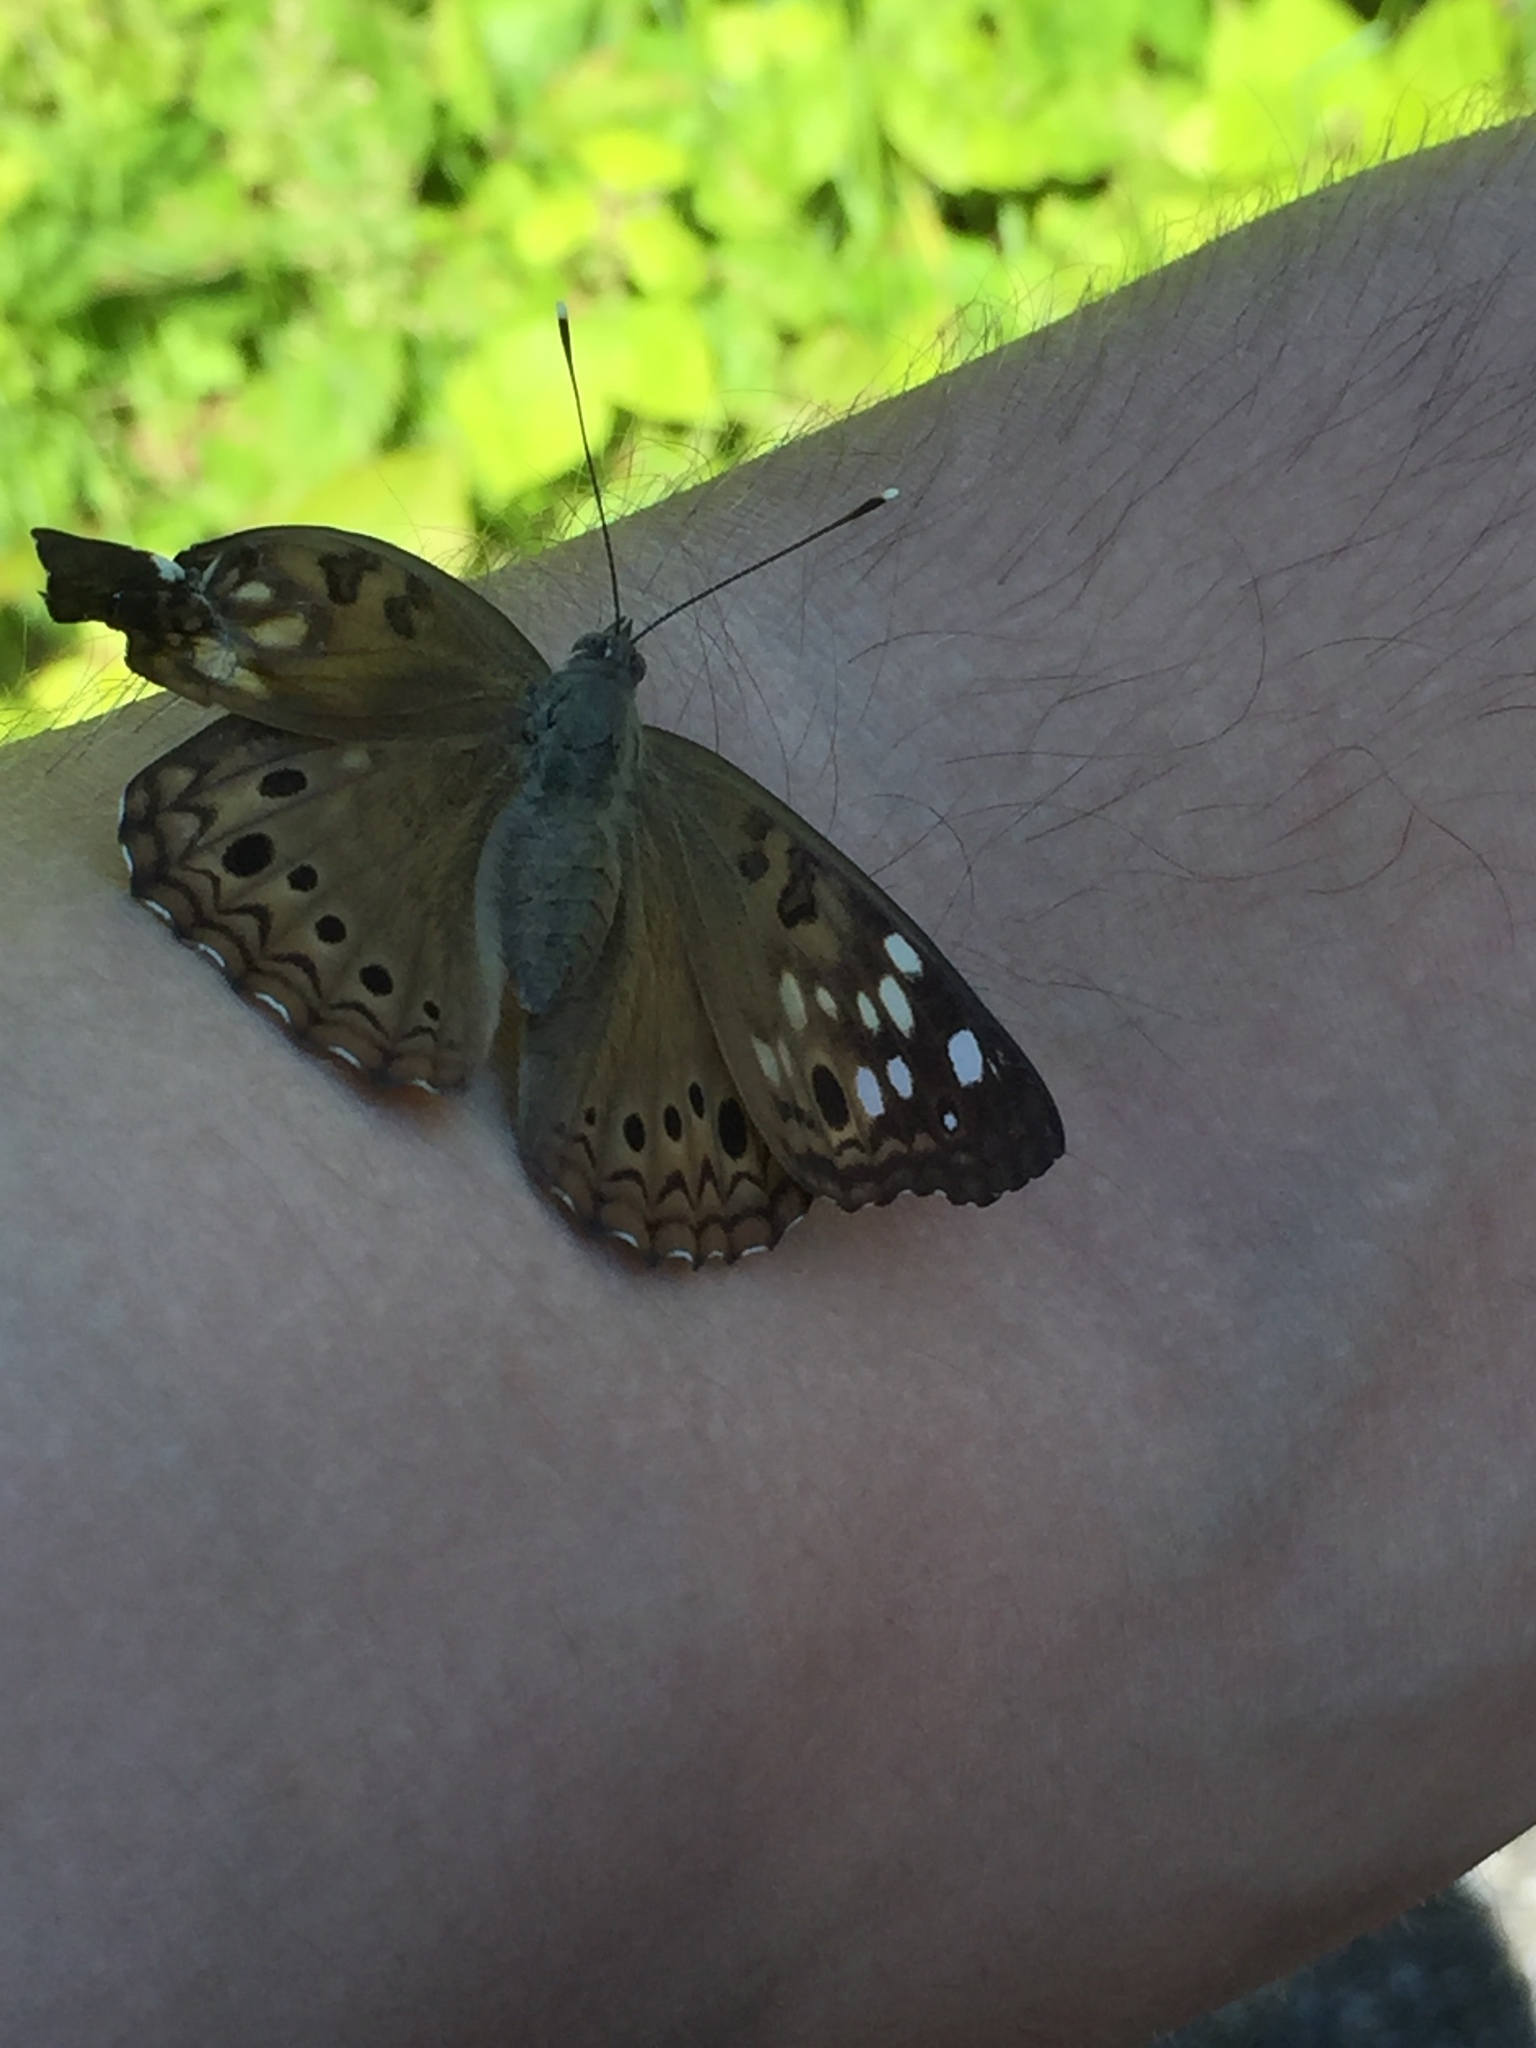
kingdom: Animalia
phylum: Arthropoda
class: Insecta
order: Lepidoptera
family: Nymphalidae
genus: Asterocampa
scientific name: Asterocampa celtis
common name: Hackberry emperor
